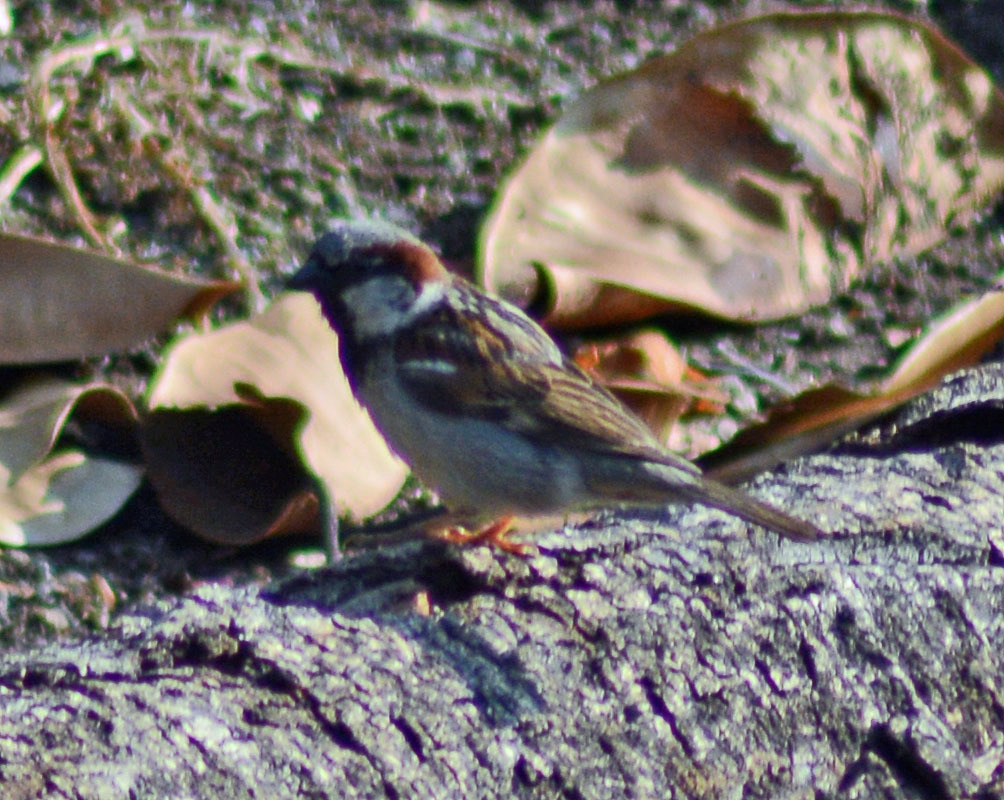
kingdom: Animalia
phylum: Chordata
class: Aves
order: Passeriformes
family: Passeridae
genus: Passer
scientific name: Passer domesticus
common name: House sparrow
